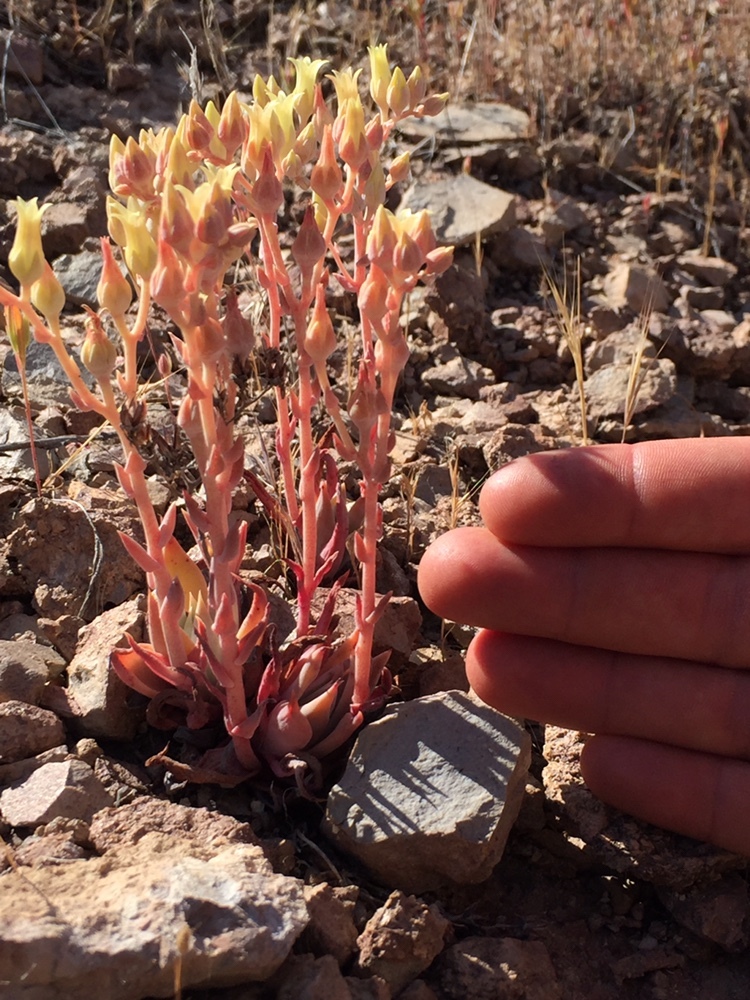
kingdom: Plantae
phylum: Tracheophyta
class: Magnoliopsida
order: Saxifragales
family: Crassulaceae
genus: Dudleya
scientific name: Dudleya cymosa
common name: Canyon dudleya
